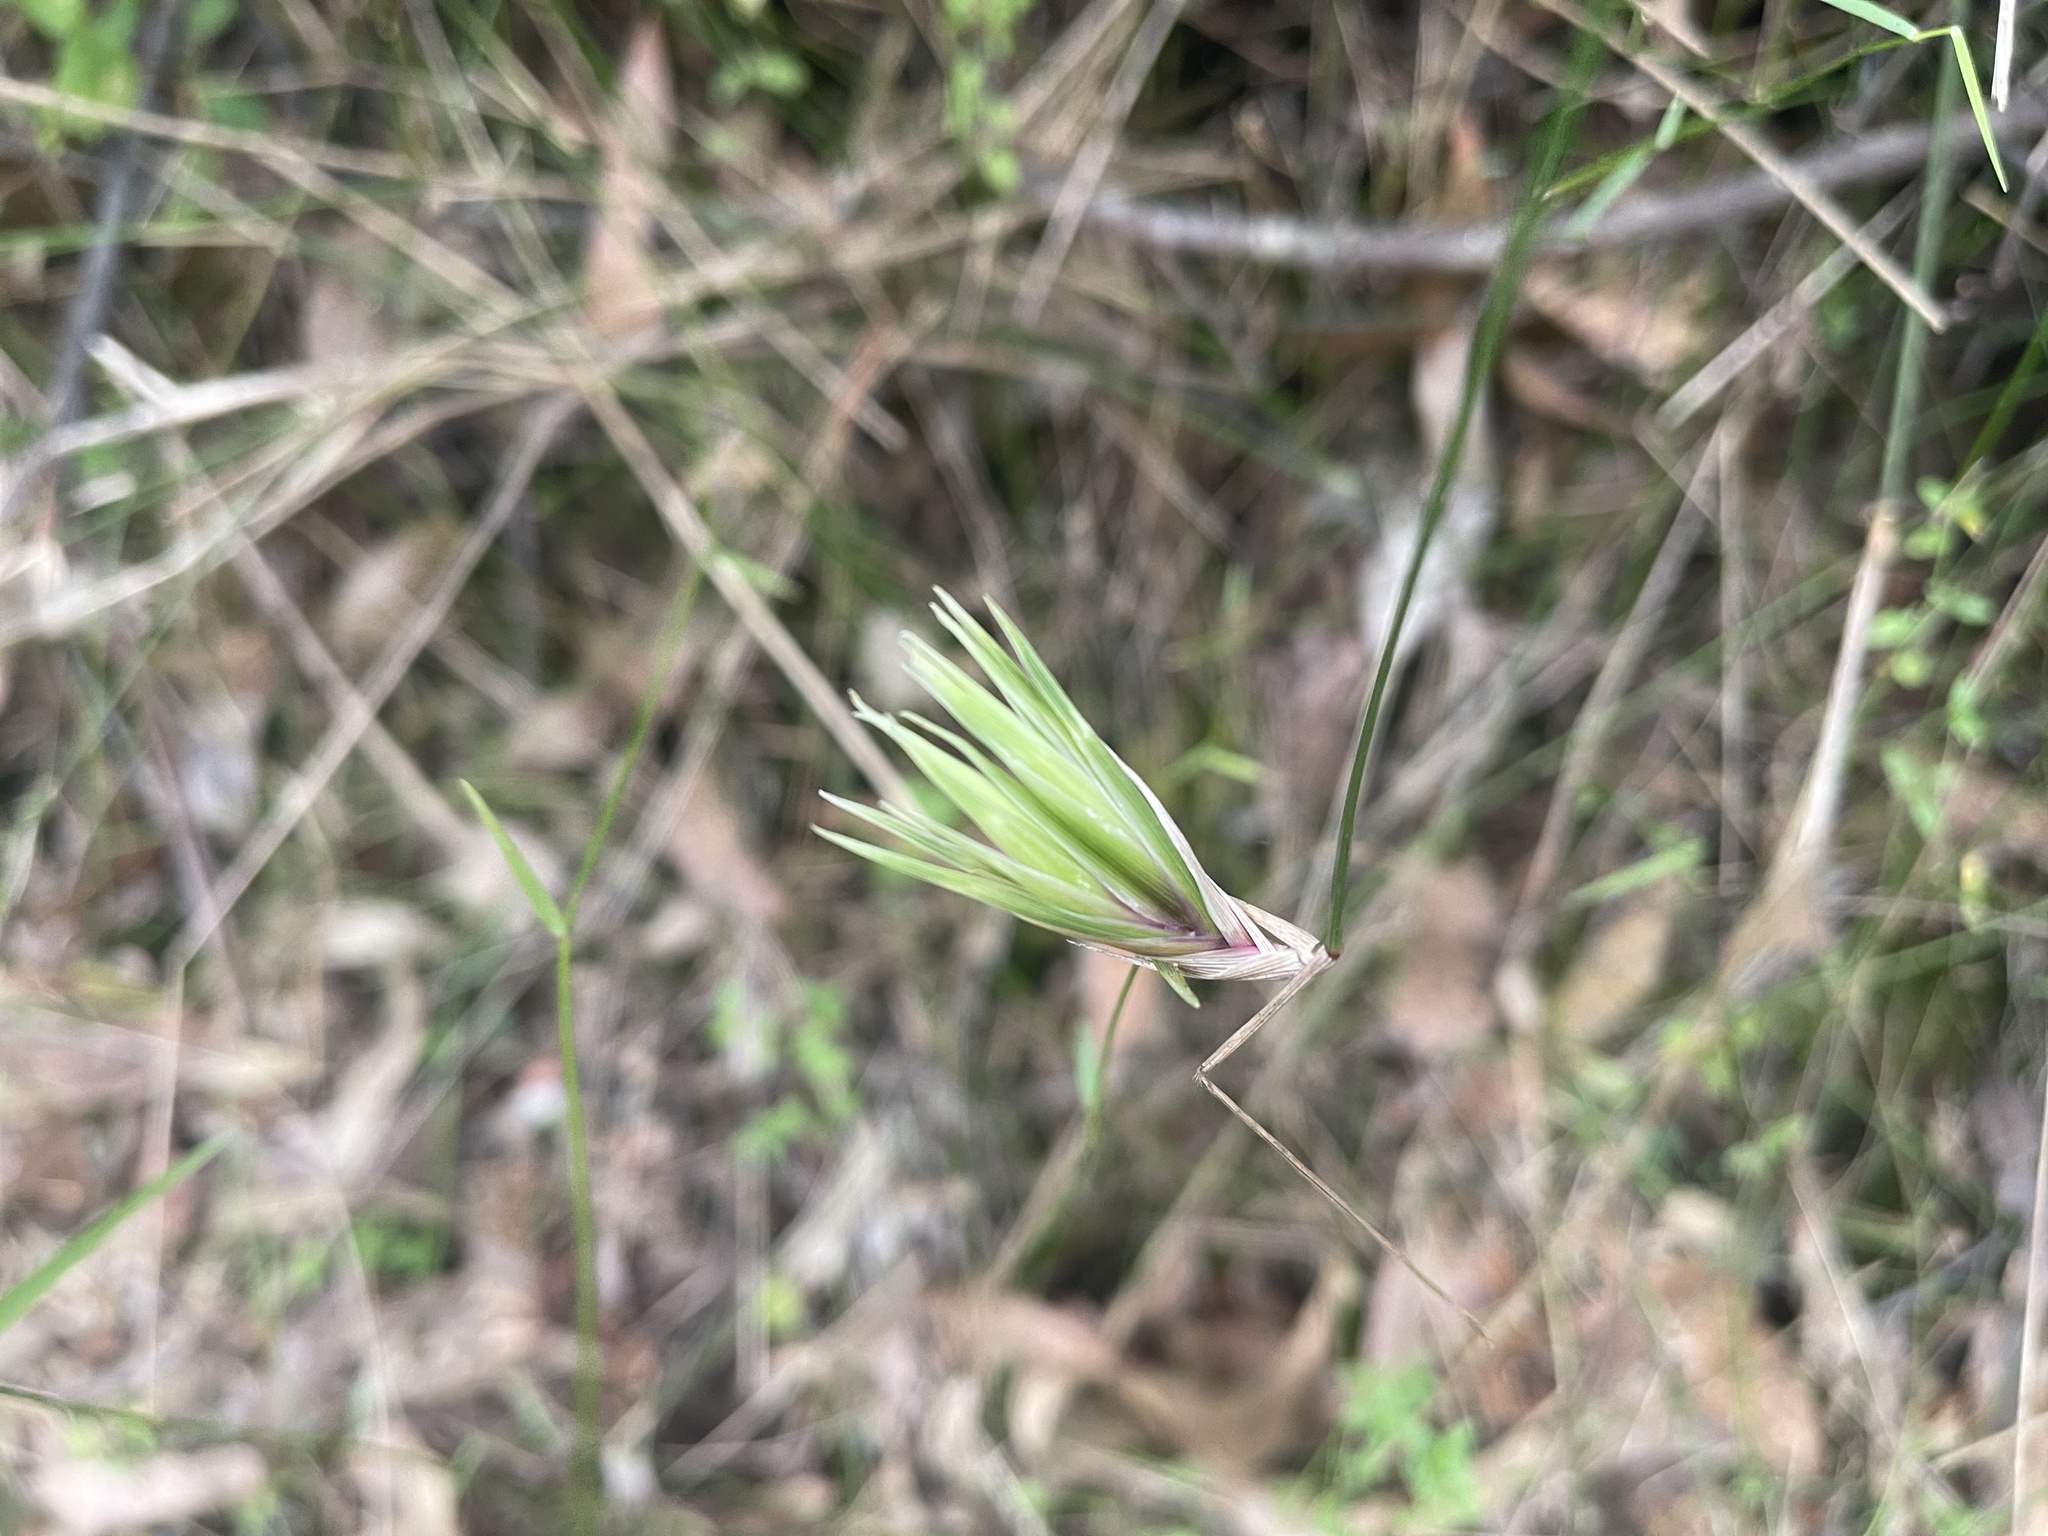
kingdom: Plantae
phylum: Tracheophyta
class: Liliopsida
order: Poales
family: Poaceae
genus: Tetrarrhena
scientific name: Tetrarrhena juncea
